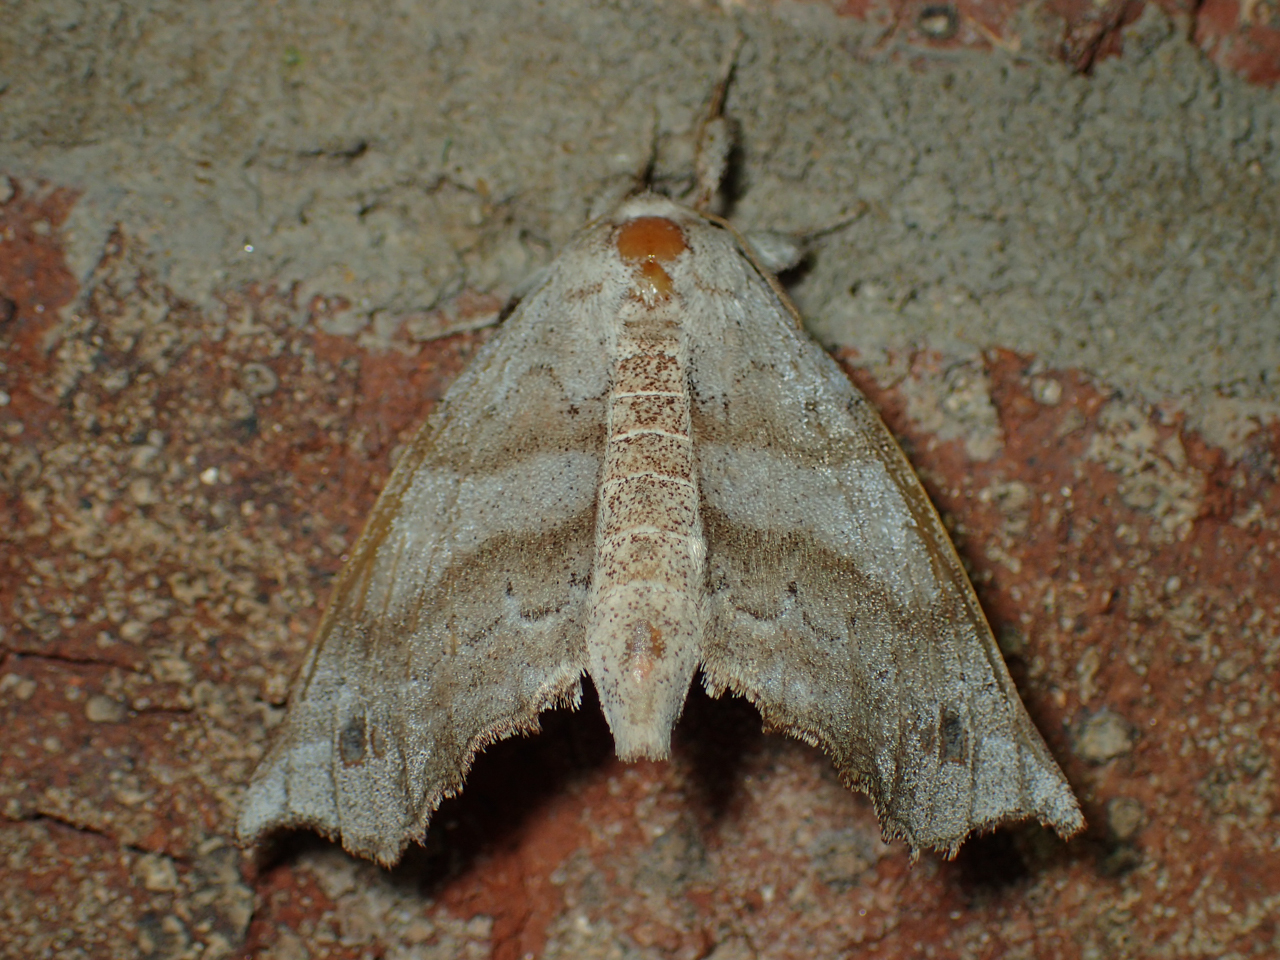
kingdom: Animalia
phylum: Arthropoda
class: Insecta
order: Lepidoptera
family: Apatelodidae
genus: Olceclostera
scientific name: Olceclostera angelica
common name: Angel moth
